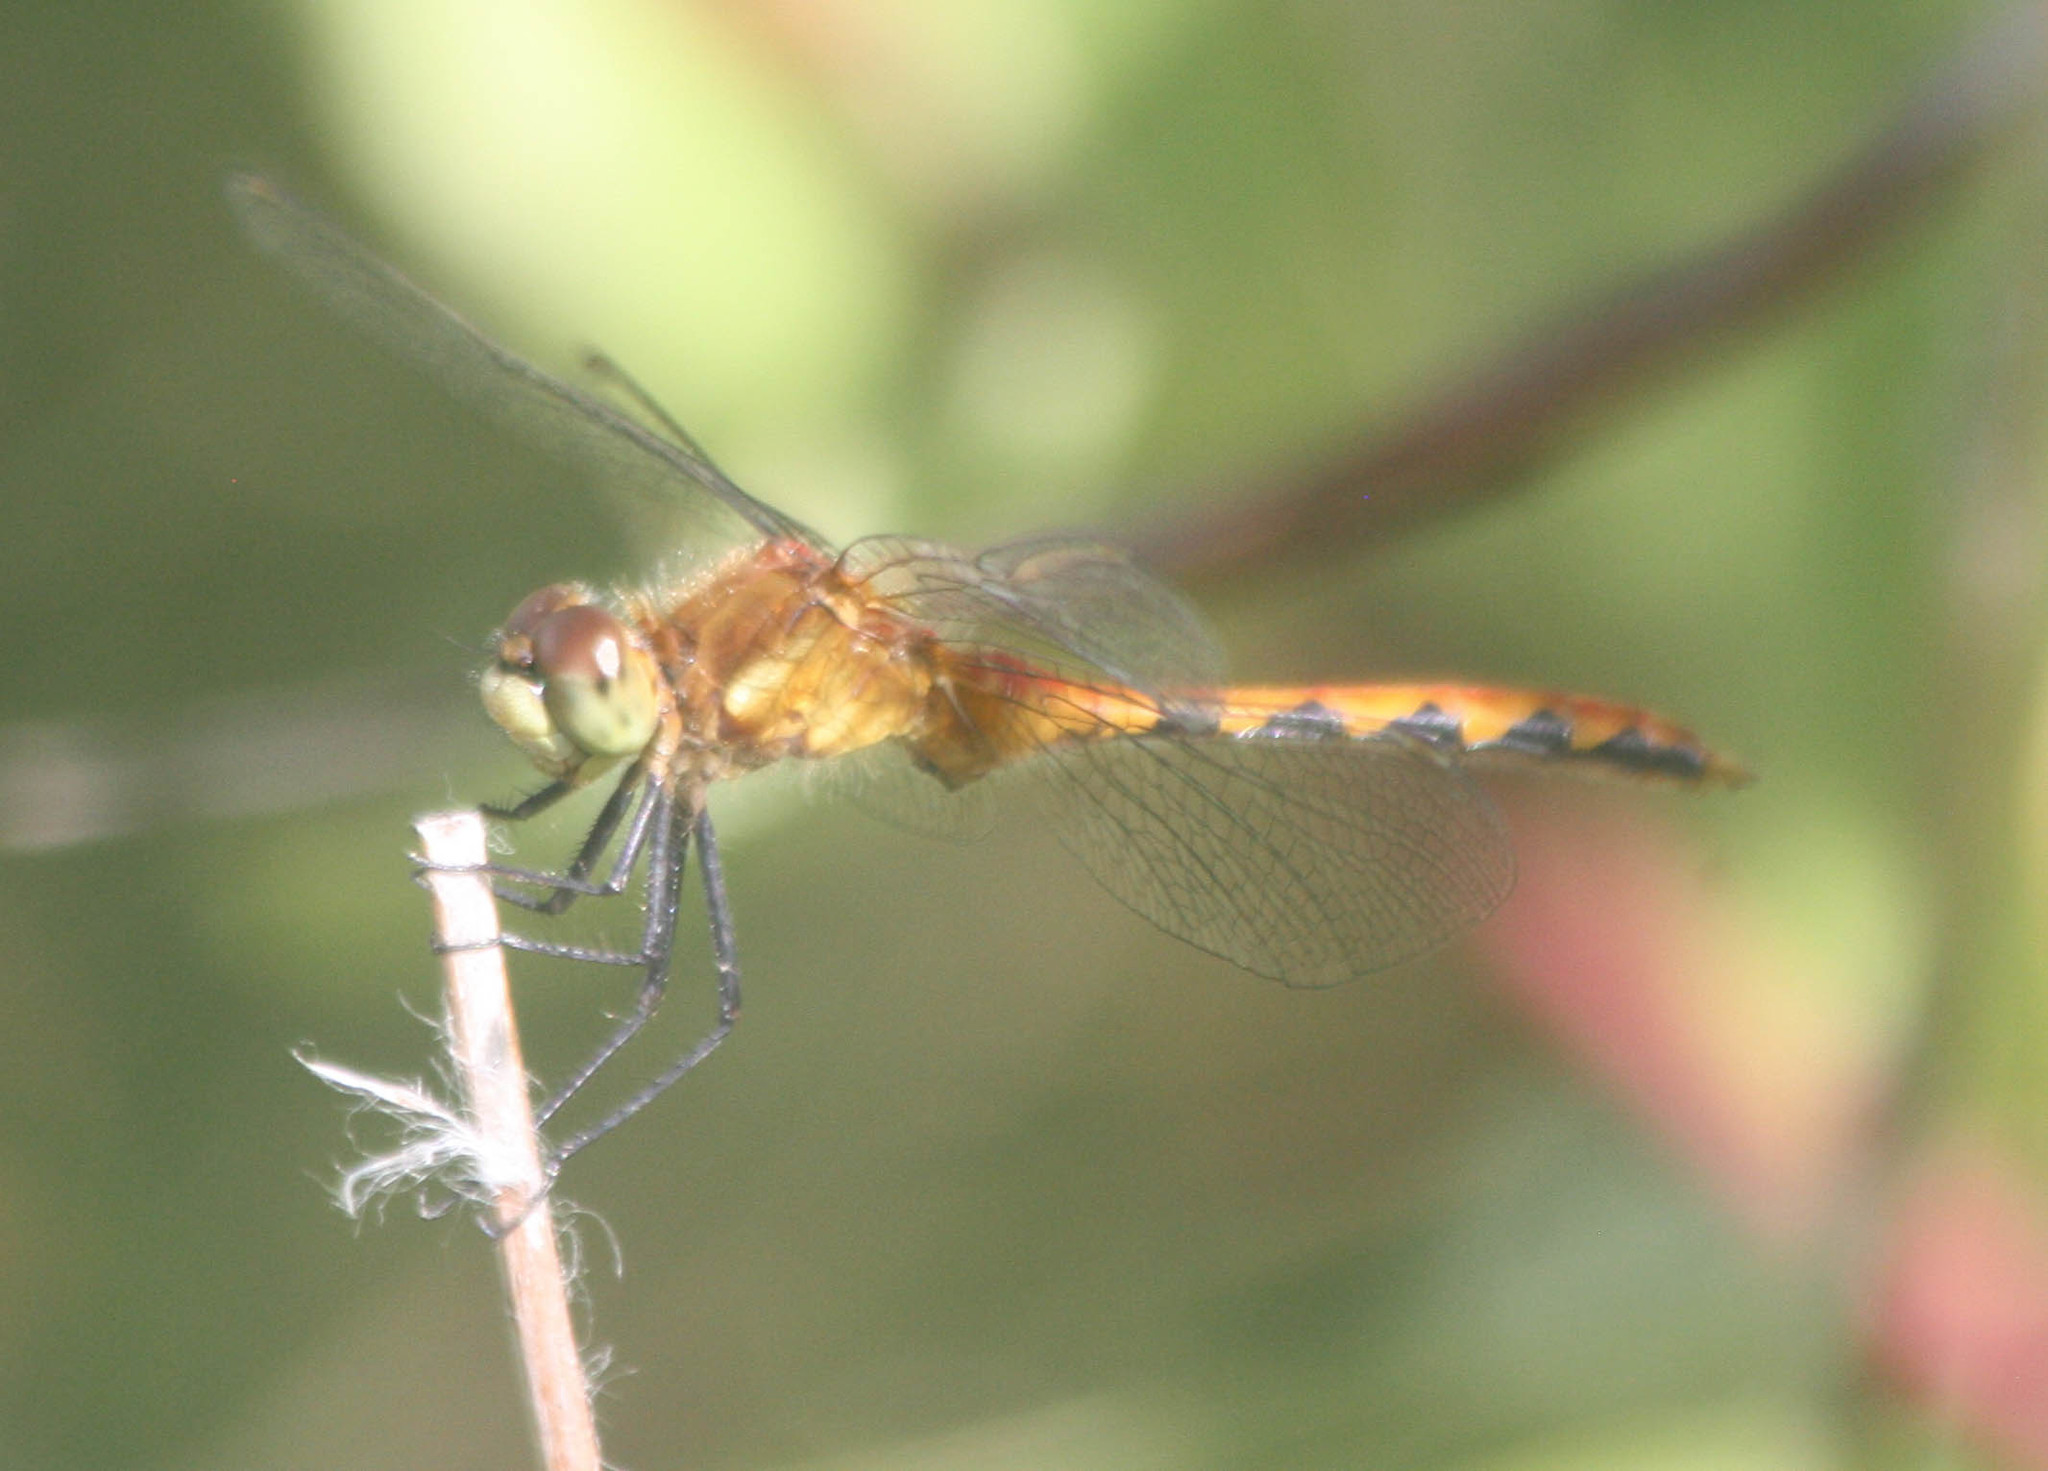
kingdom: Animalia
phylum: Arthropoda
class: Insecta
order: Odonata
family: Libellulidae
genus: Sympetrum
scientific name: Sympetrum obtrusum
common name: White-faced meadowhawk
